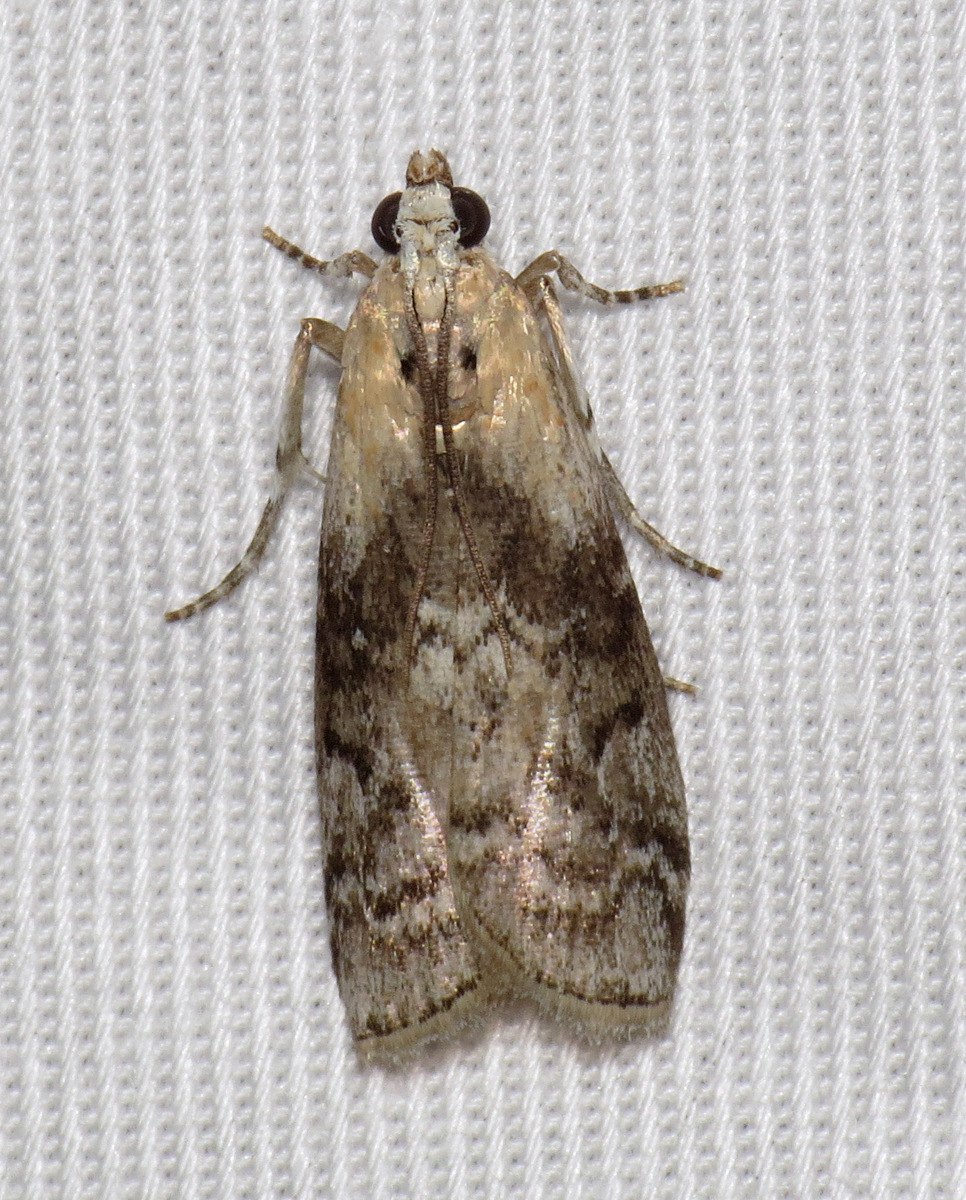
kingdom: Animalia
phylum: Arthropoda
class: Insecta
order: Lepidoptera
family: Pyralidae
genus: Glyptocera
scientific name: Glyptocera consobrinella
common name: Viburnum glyptocera moth
